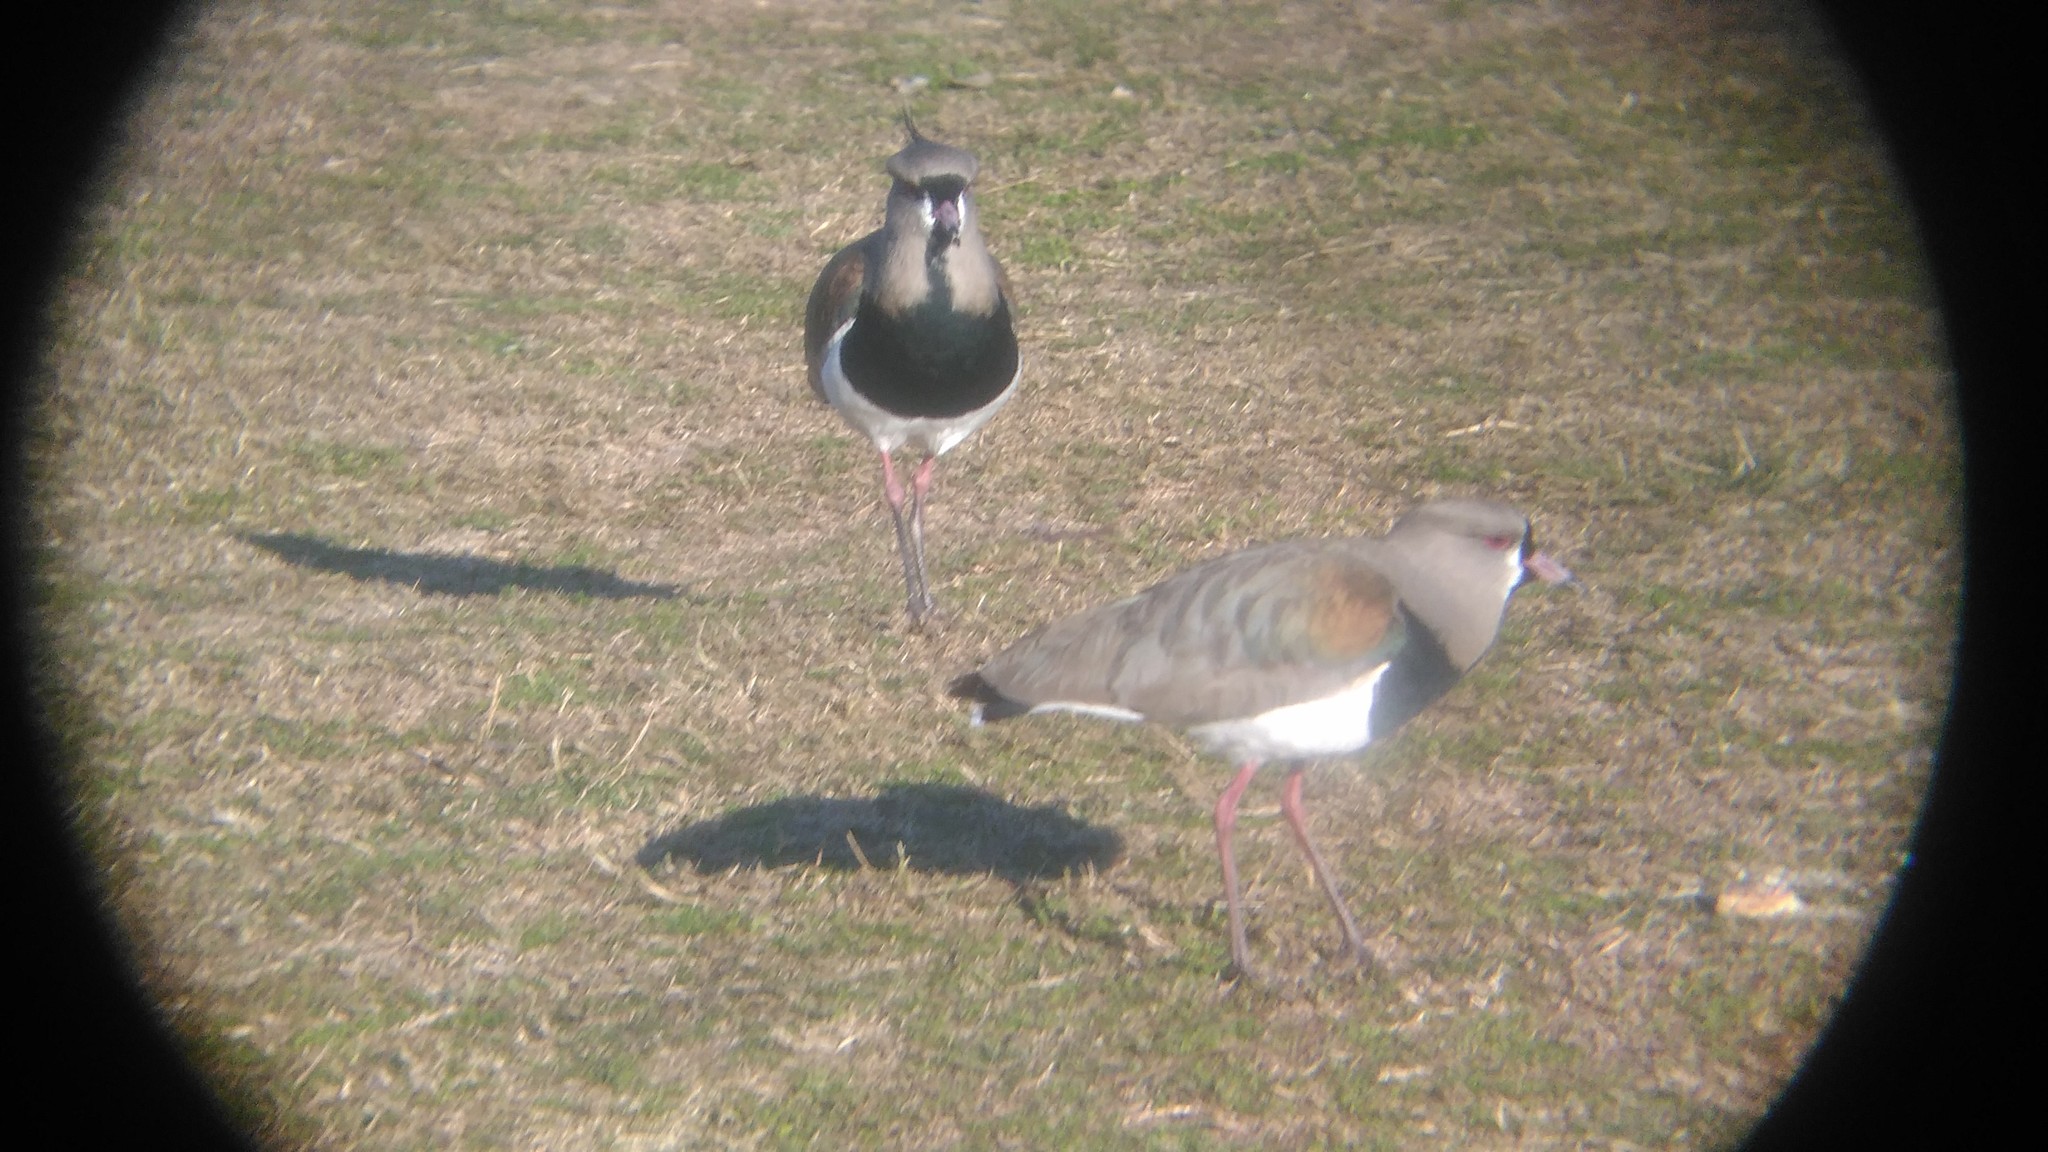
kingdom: Animalia
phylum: Chordata
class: Aves
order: Charadriiformes
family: Charadriidae
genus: Vanellus
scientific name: Vanellus chilensis
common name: Southern lapwing
